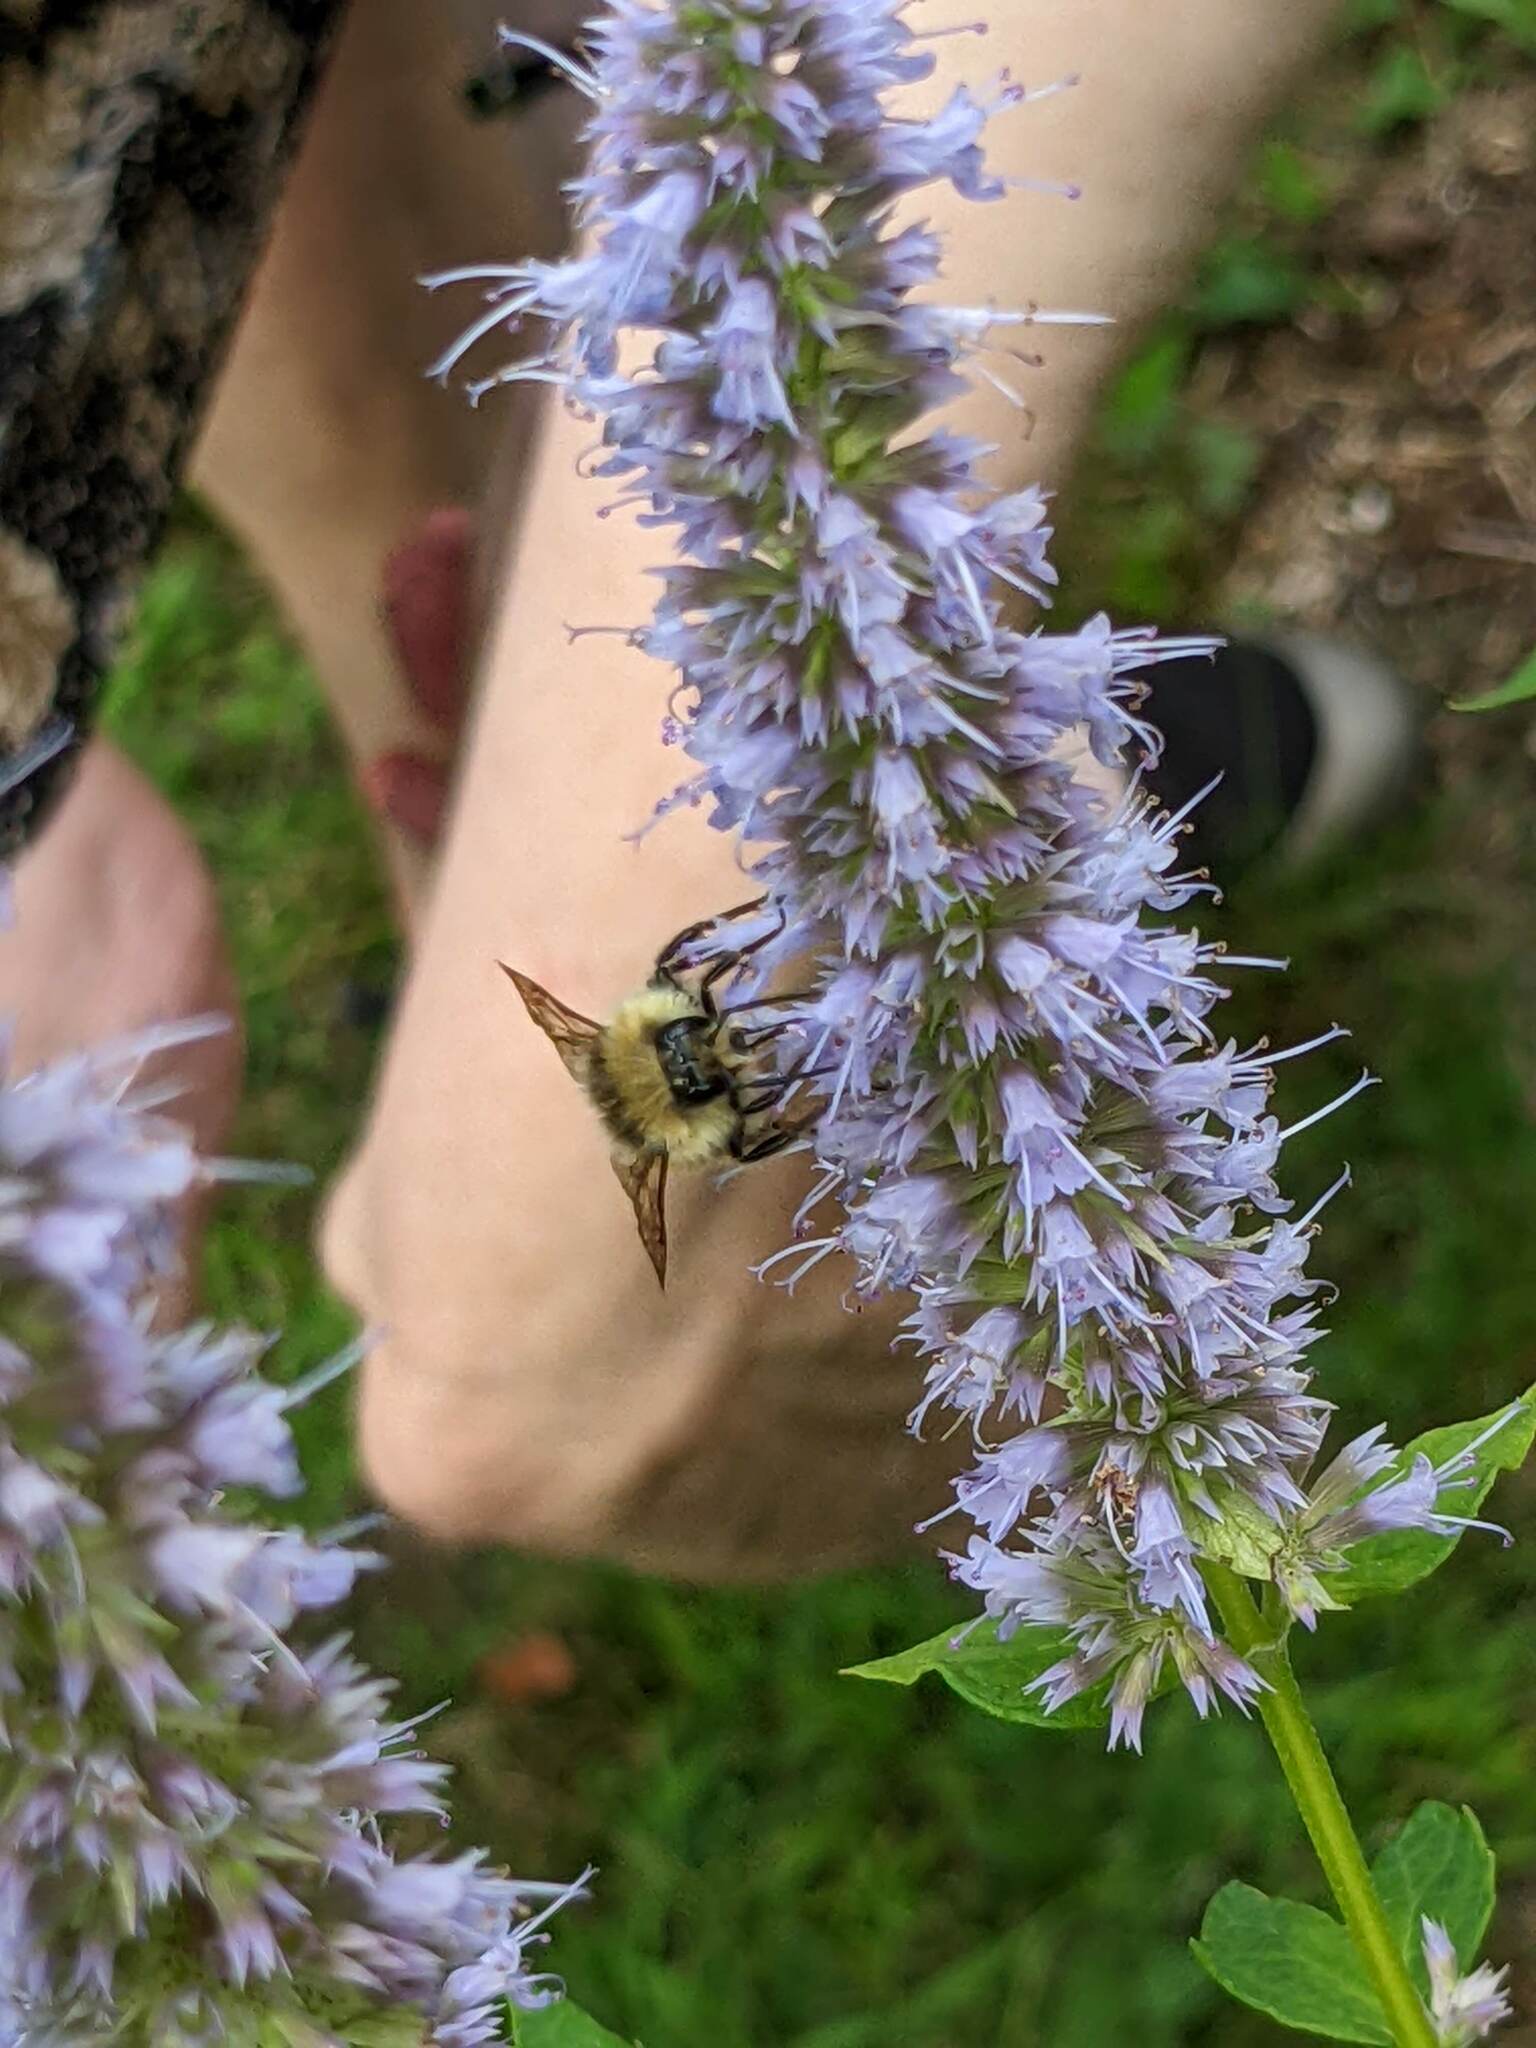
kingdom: Animalia
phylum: Arthropoda
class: Insecta
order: Hymenoptera
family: Apidae
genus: Bombus
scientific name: Bombus ternarius
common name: Tri-colored bumble bee
